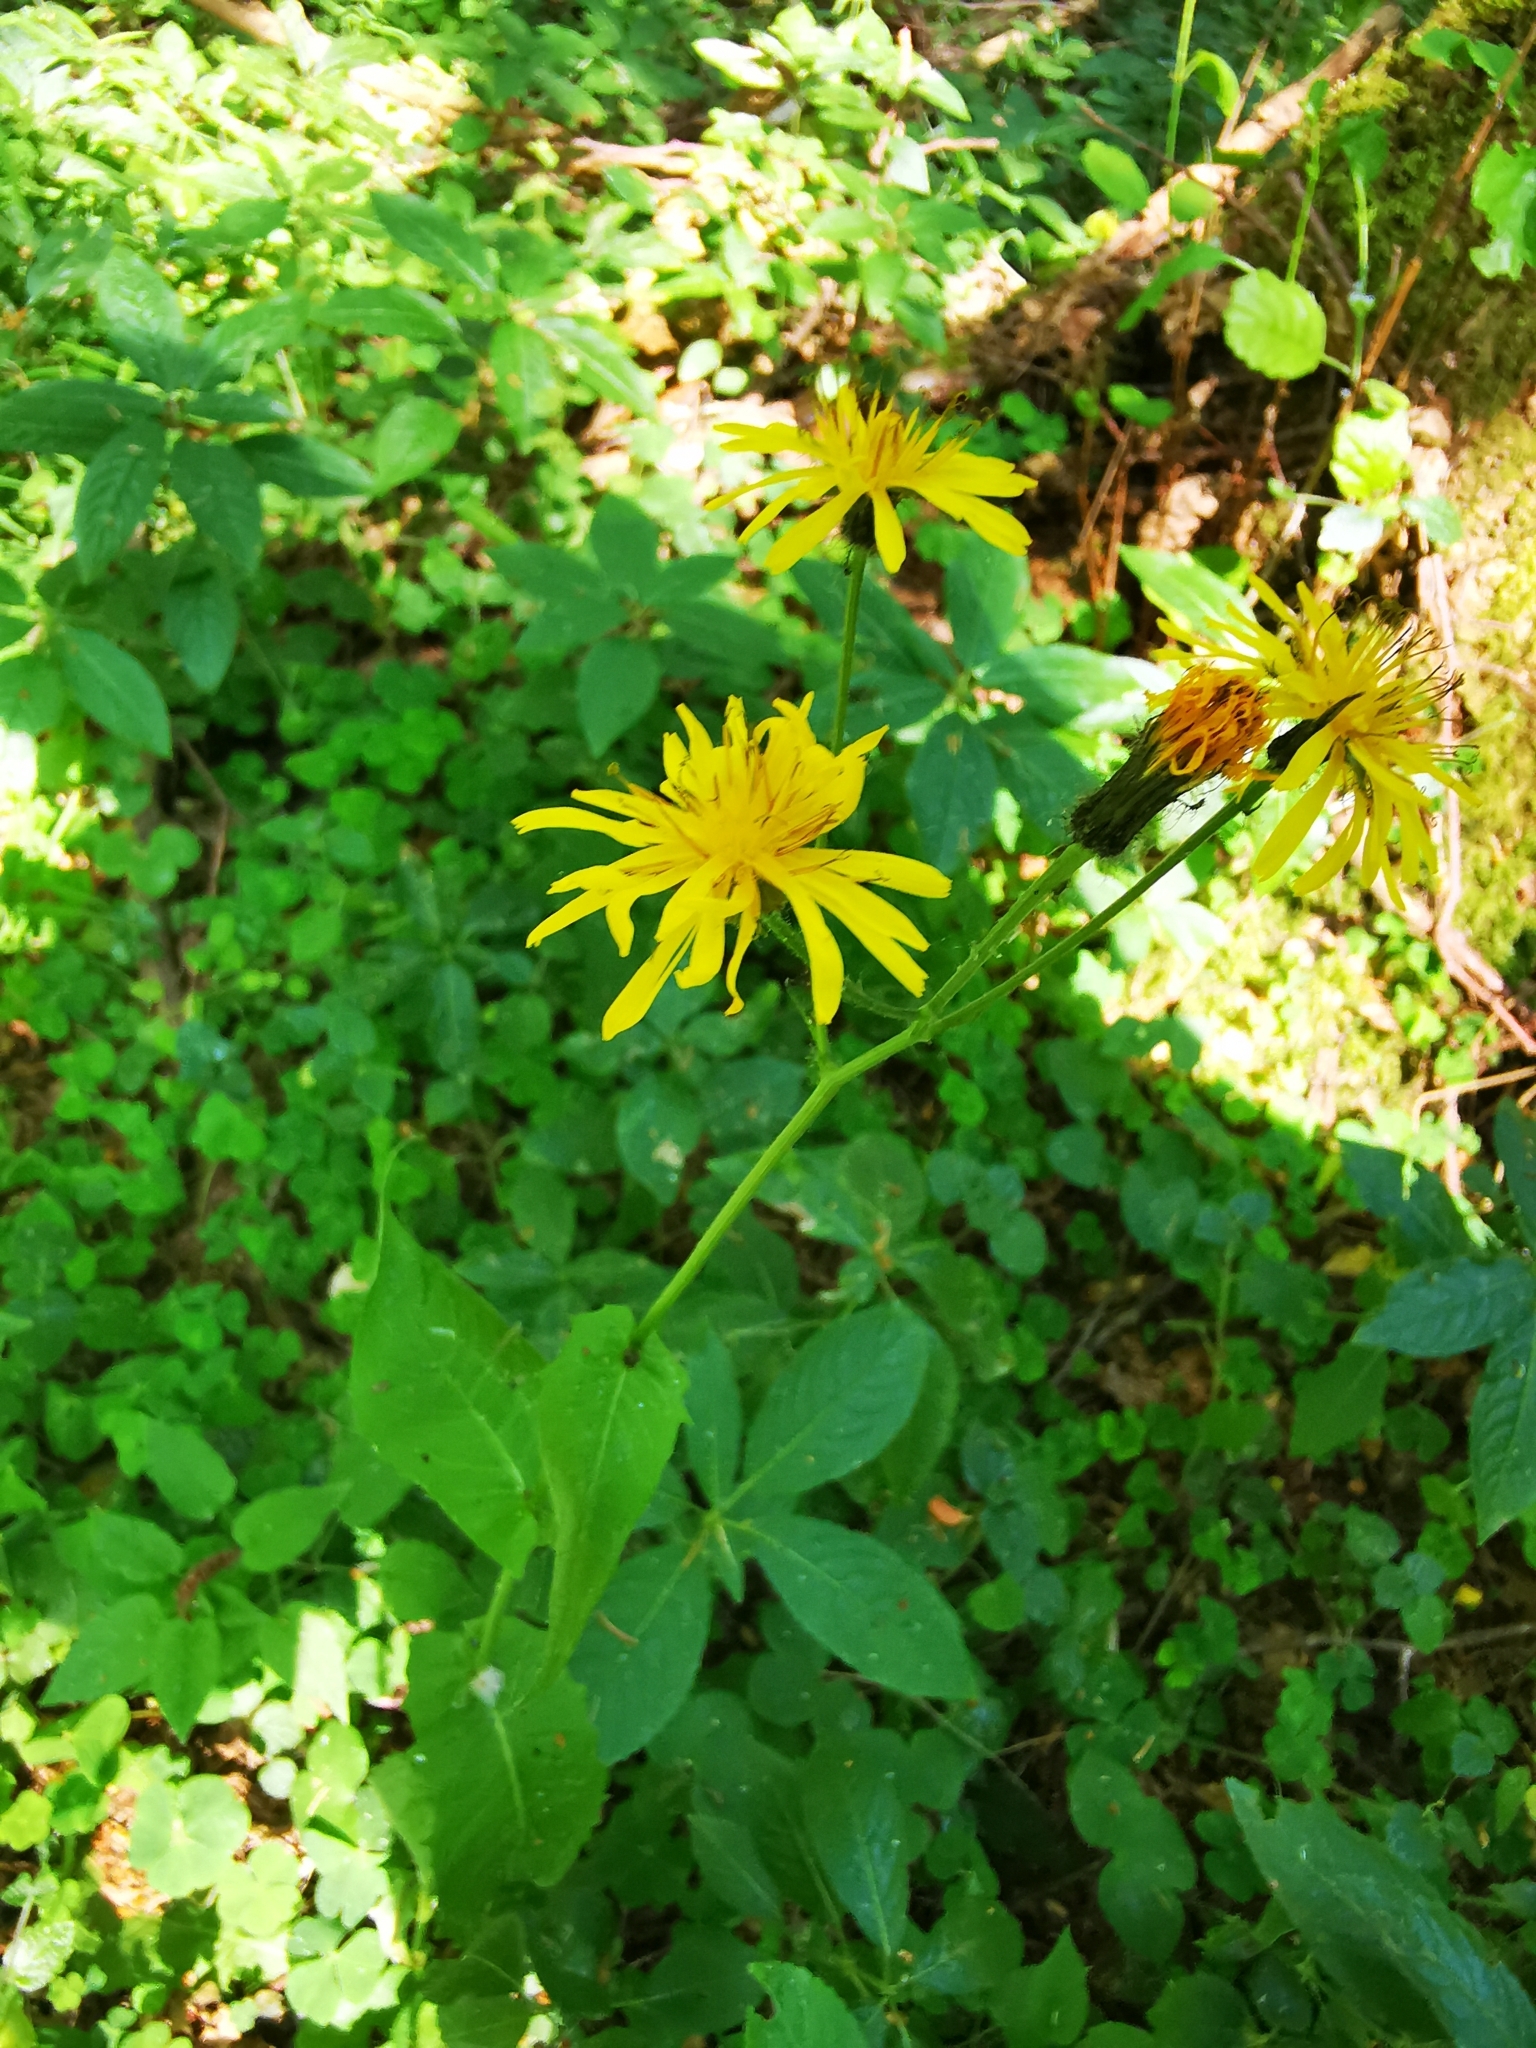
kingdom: Plantae
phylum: Tracheophyta
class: Magnoliopsida
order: Asterales
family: Asteraceae
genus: Crepis
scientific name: Crepis paludosa
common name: Marsh hawk's-beard
